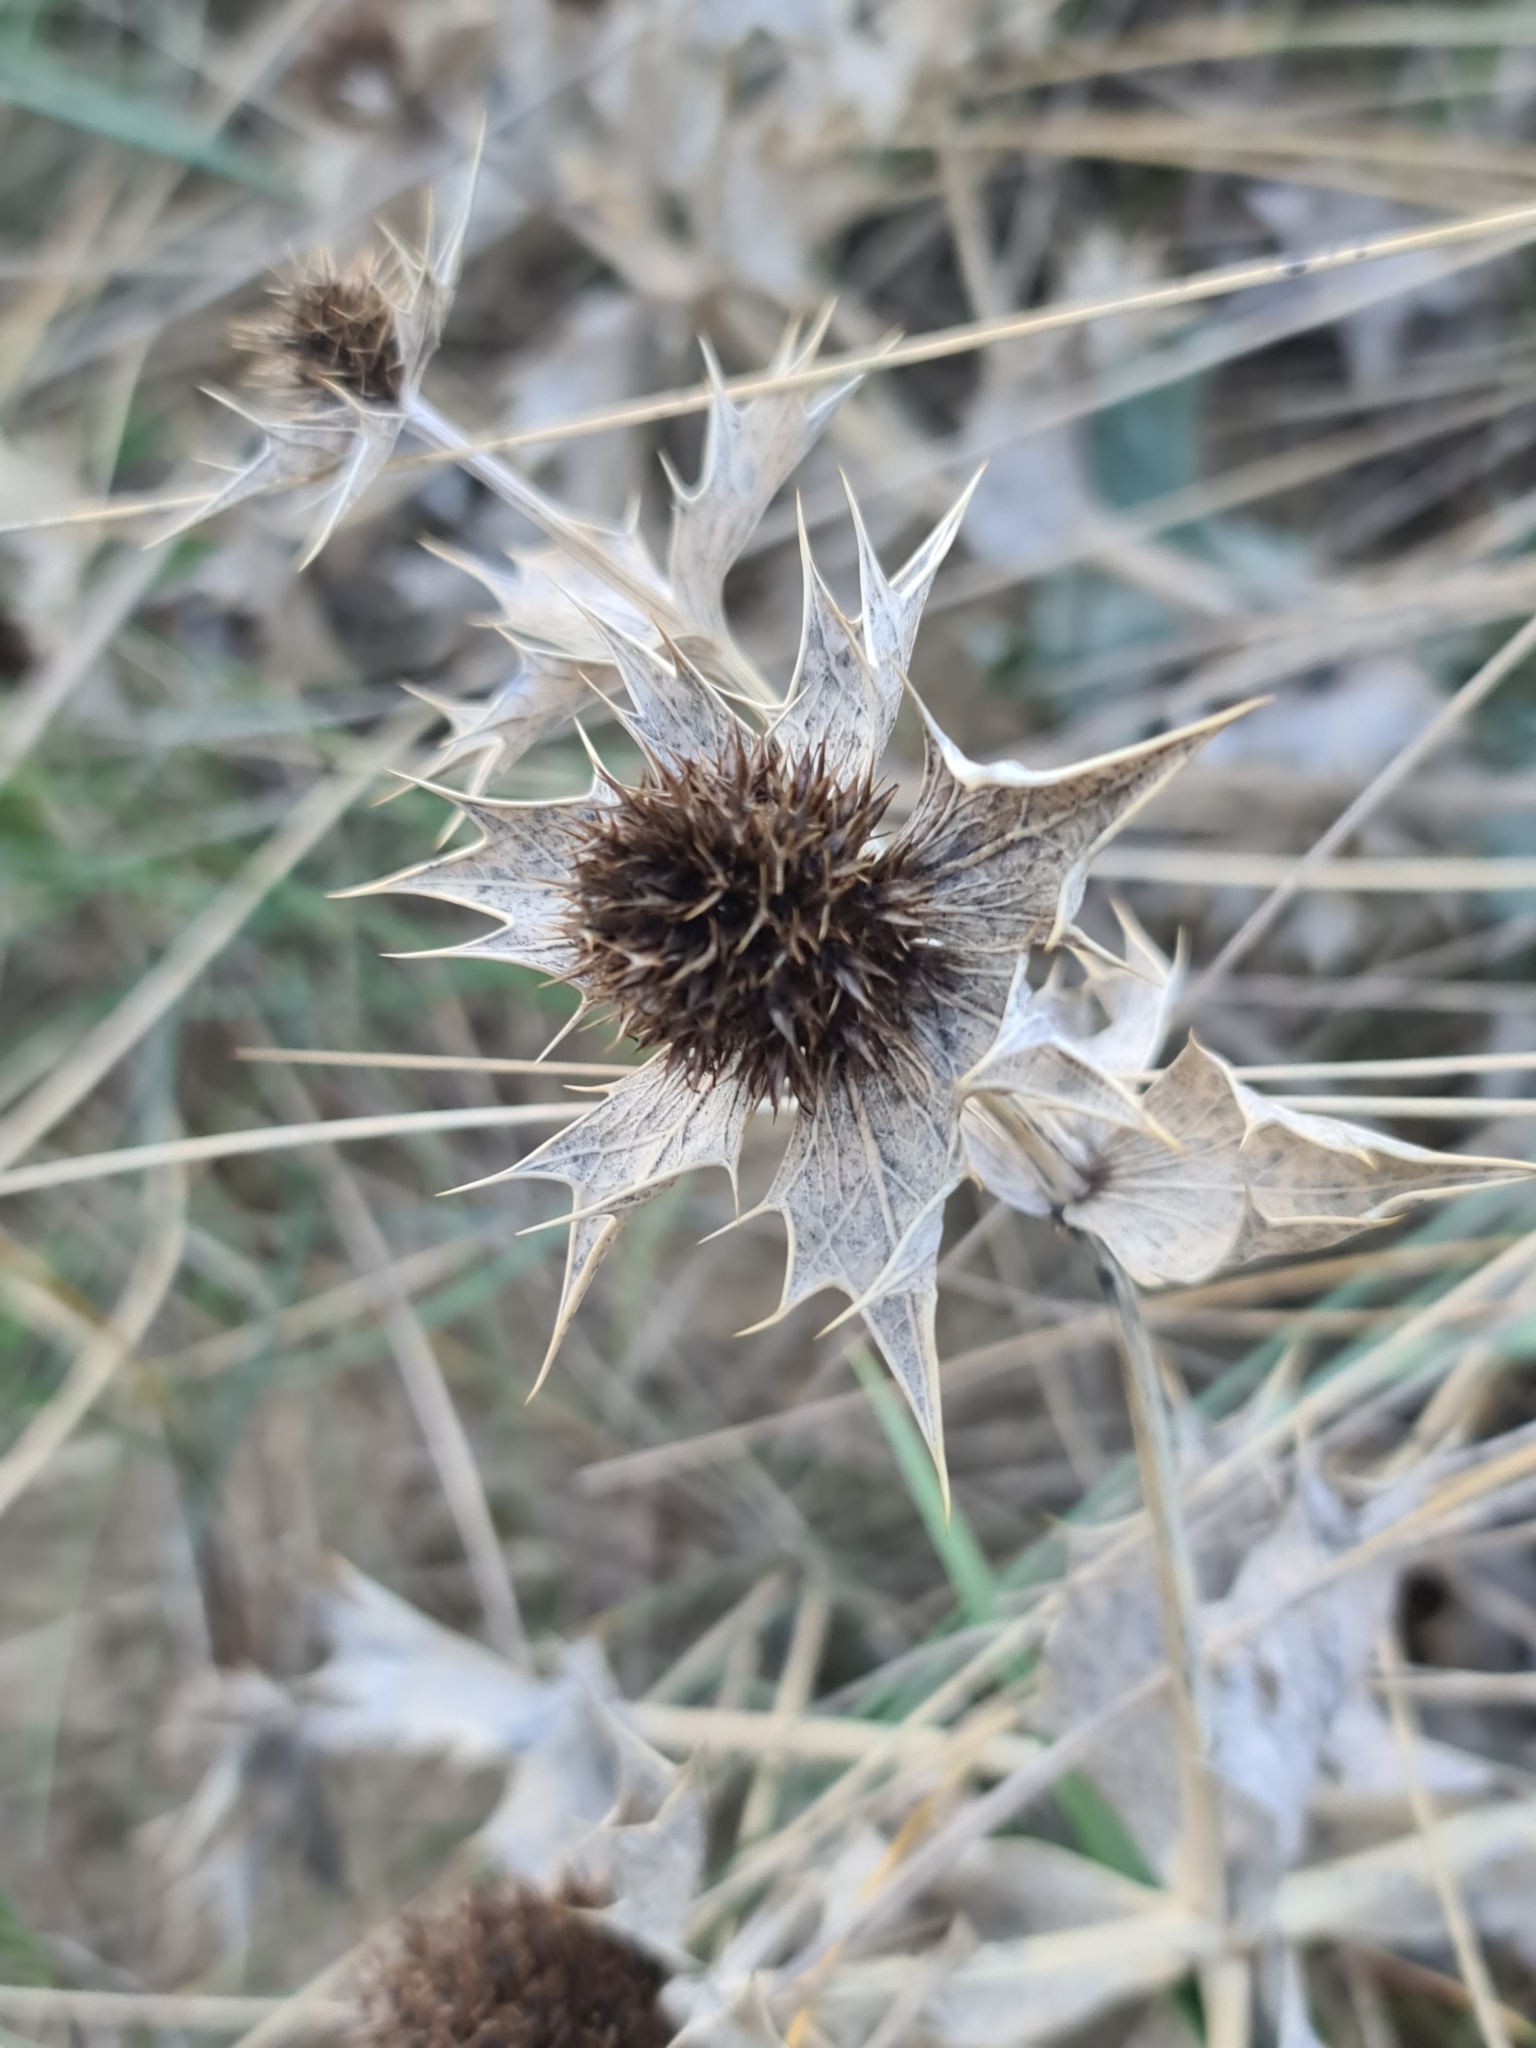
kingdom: Plantae
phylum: Tracheophyta
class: Magnoliopsida
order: Apiales
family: Apiaceae
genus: Eryngium
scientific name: Eryngium maritimum
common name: Sea-holly
